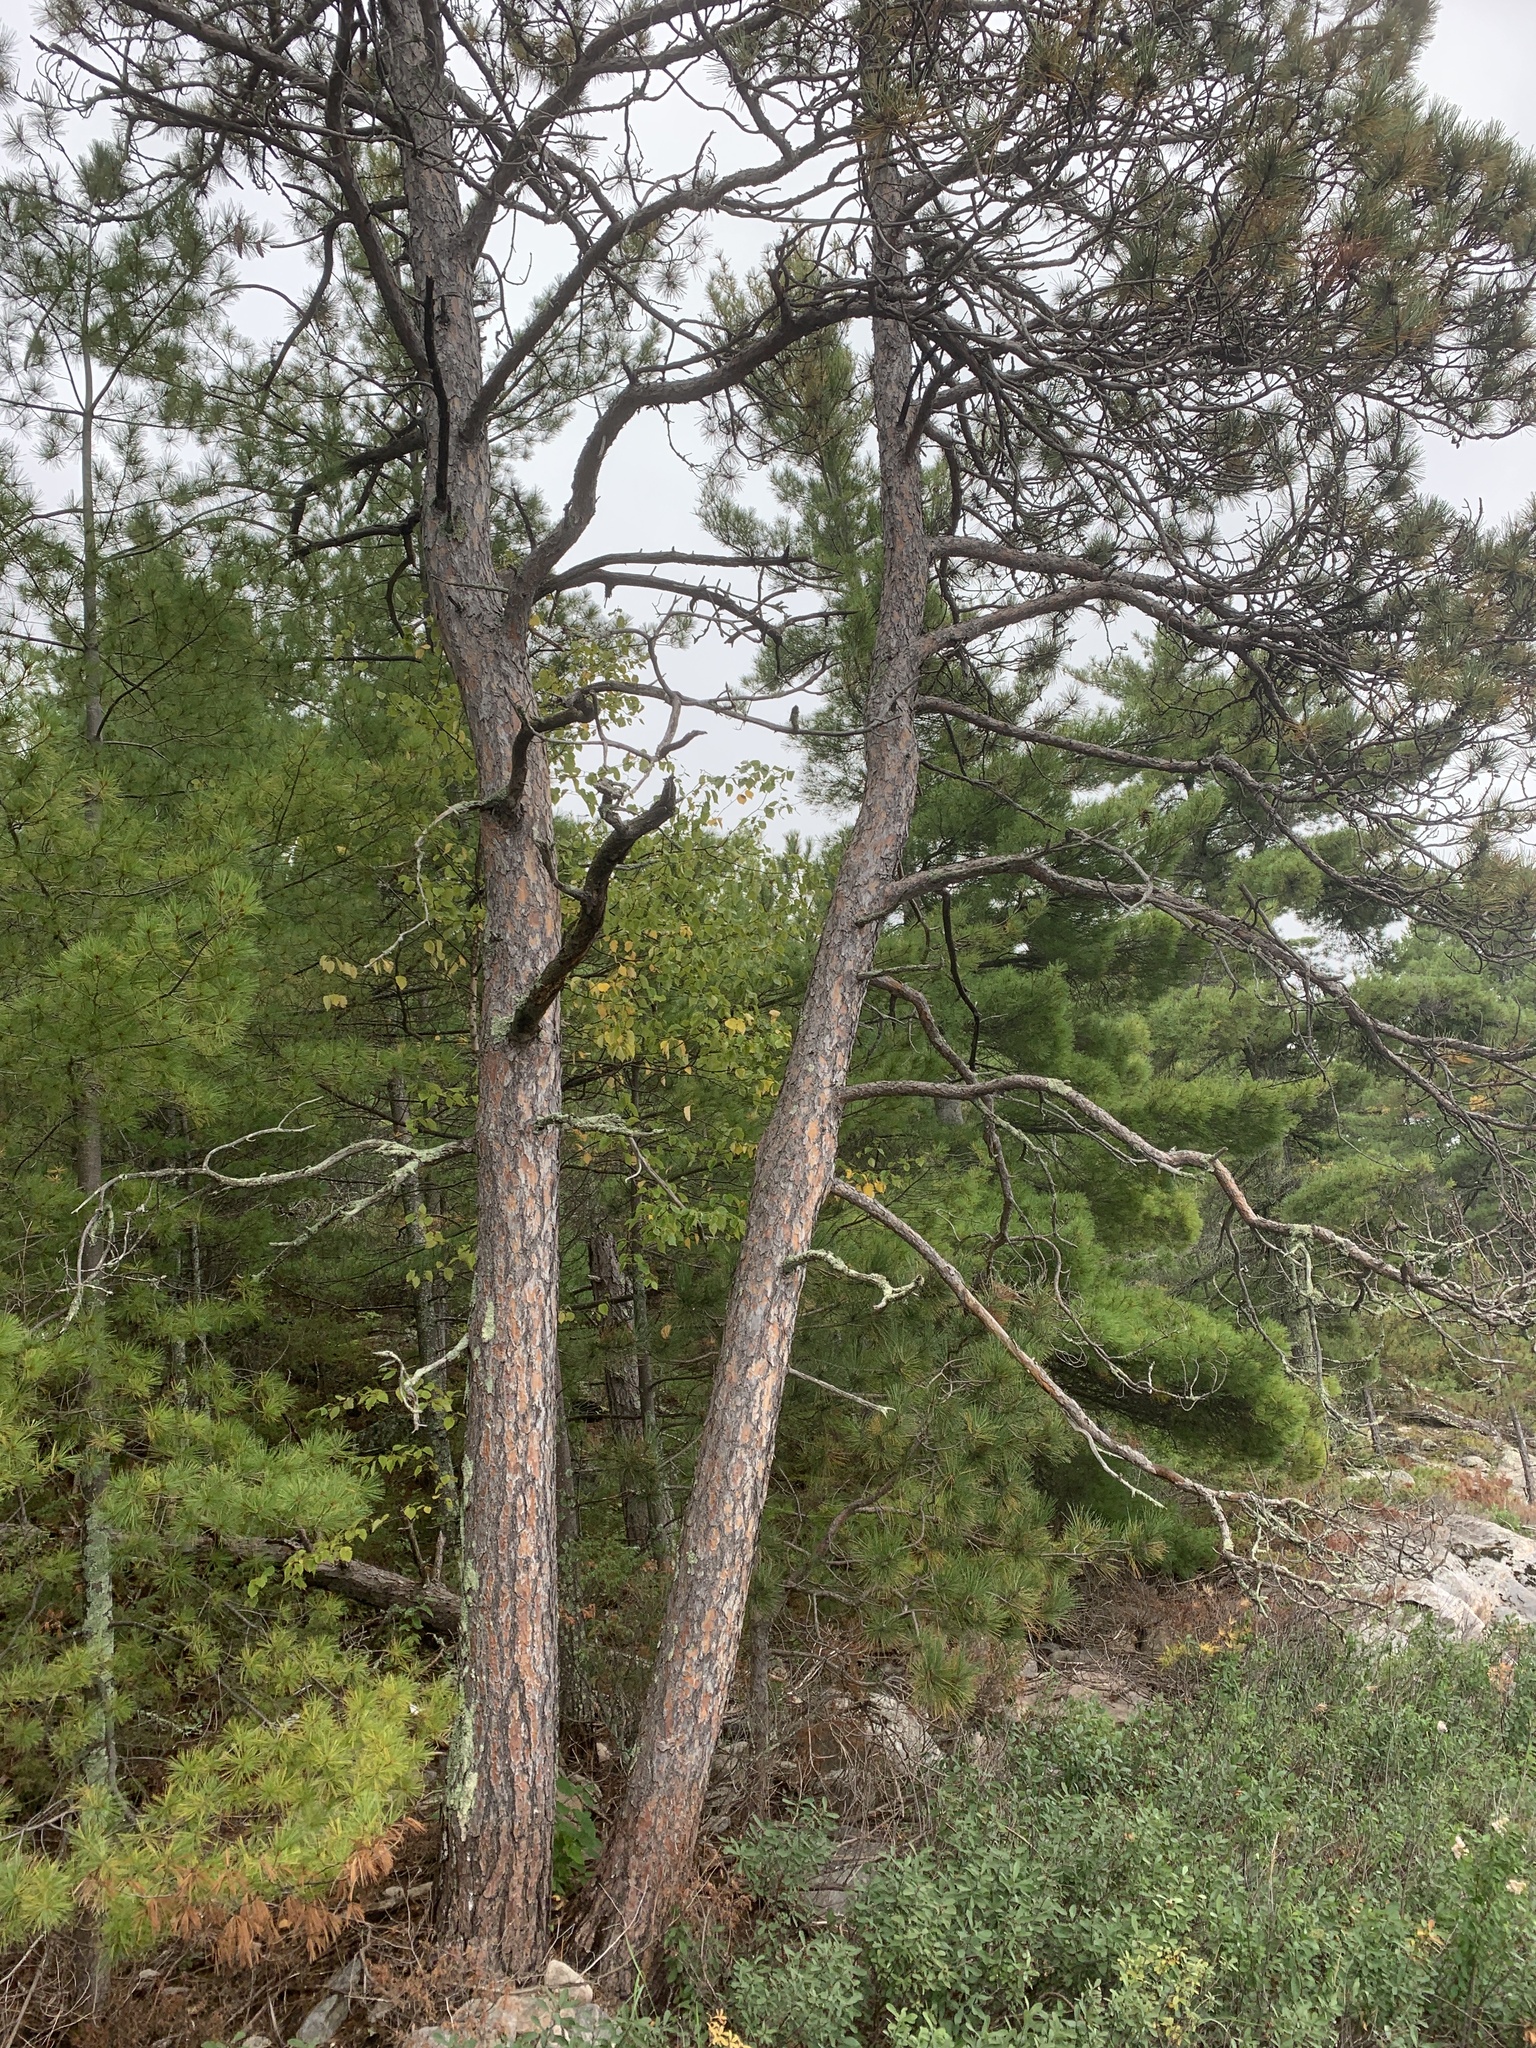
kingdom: Plantae
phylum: Tracheophyta
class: Pinopsida
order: Pinales
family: Pinaceae
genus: Pinus
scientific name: Pinus resinosa
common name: Norway pine
